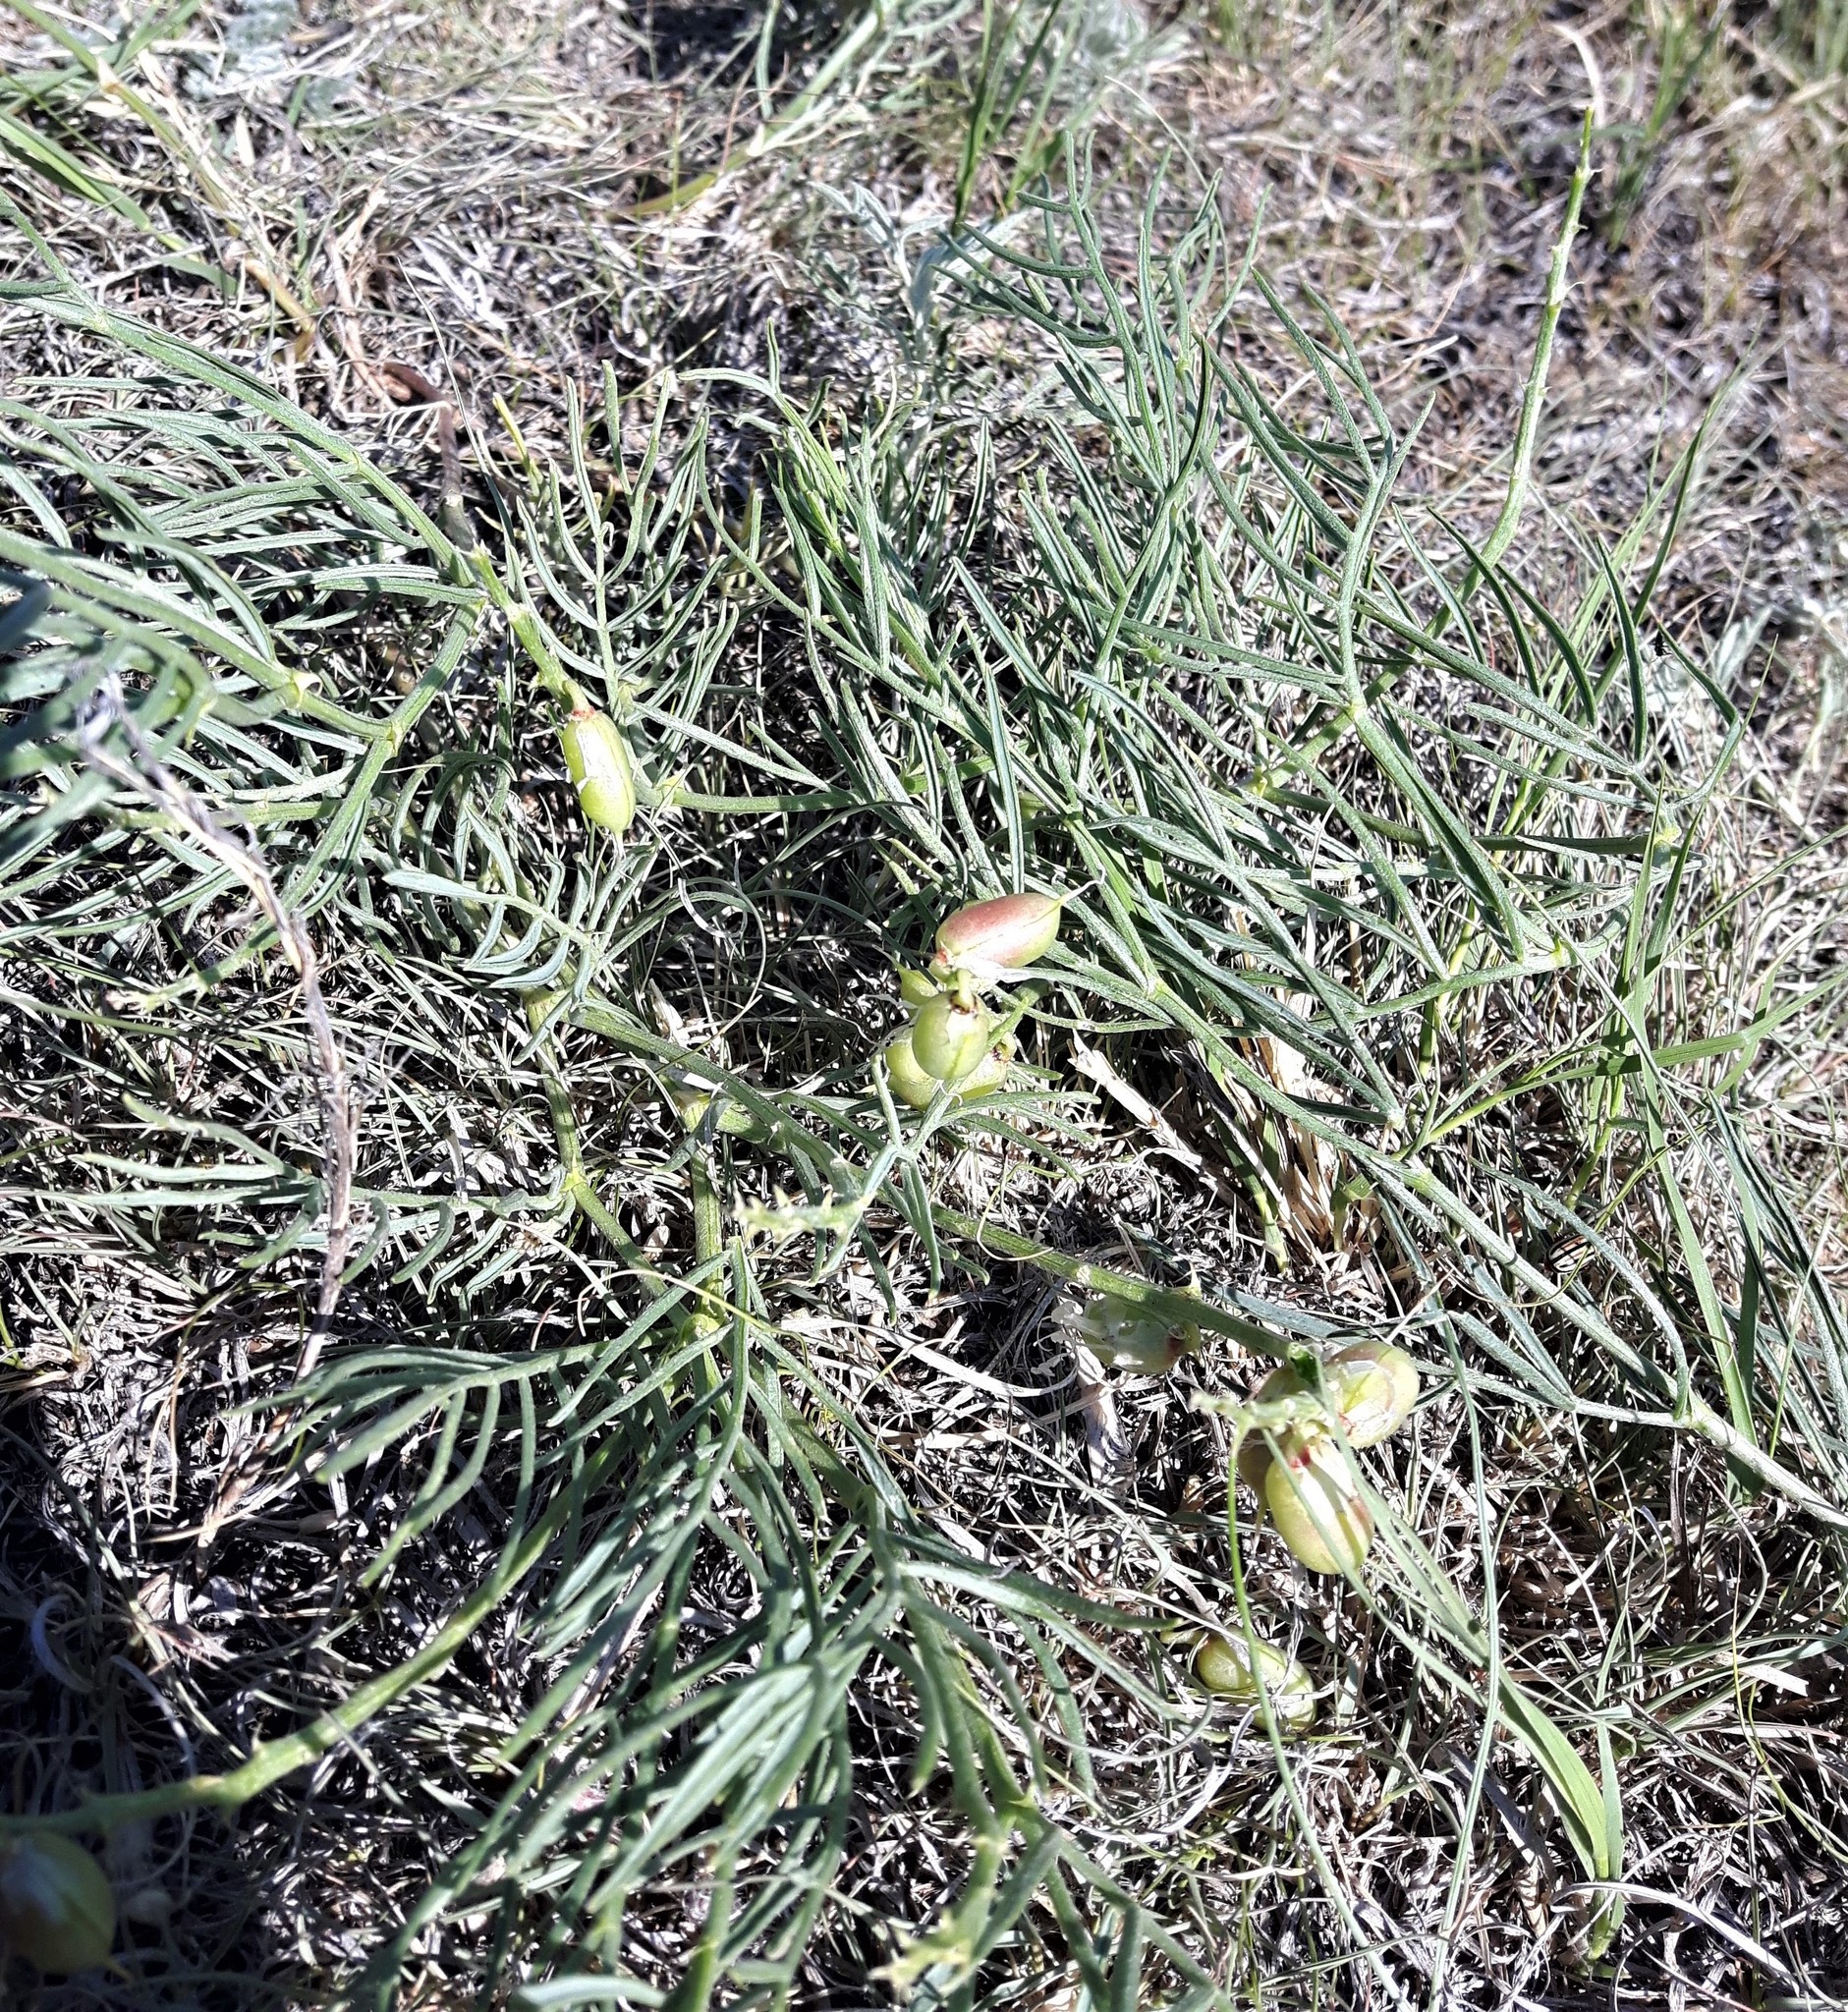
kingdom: Plantae
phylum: Tracheophyta
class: Magnoliopsida
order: Fabales
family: Fabaceae
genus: Astragalus
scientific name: Astragalus pectinatus
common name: Tine-leaf milk-vetch
